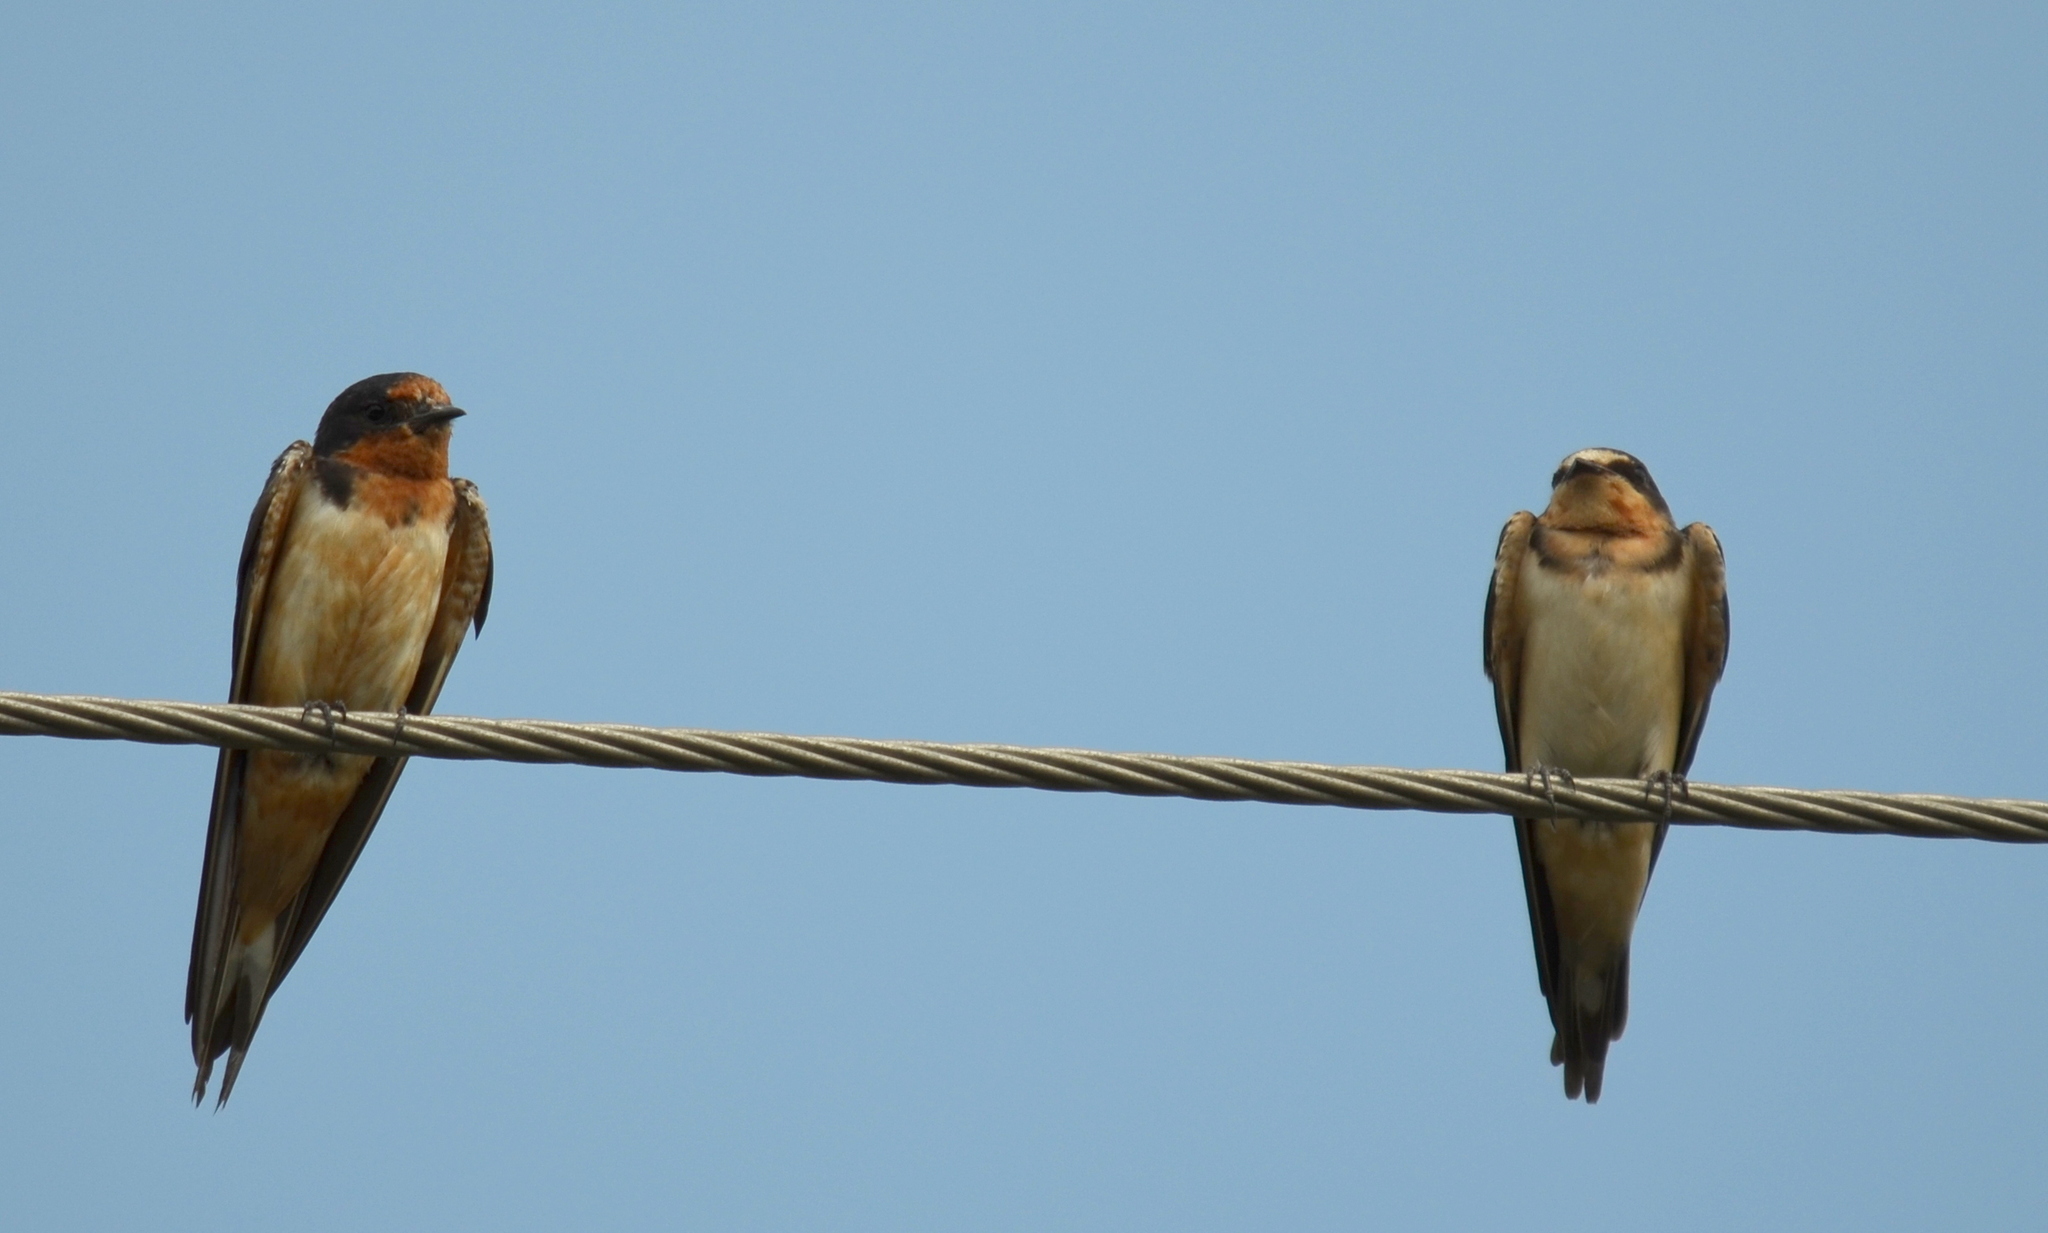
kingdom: Animalia
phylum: Chordata
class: Aves
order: Passeriformes
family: Hirundinidae
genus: Hirundo
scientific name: Hirundo rustica
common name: Barn swallow
